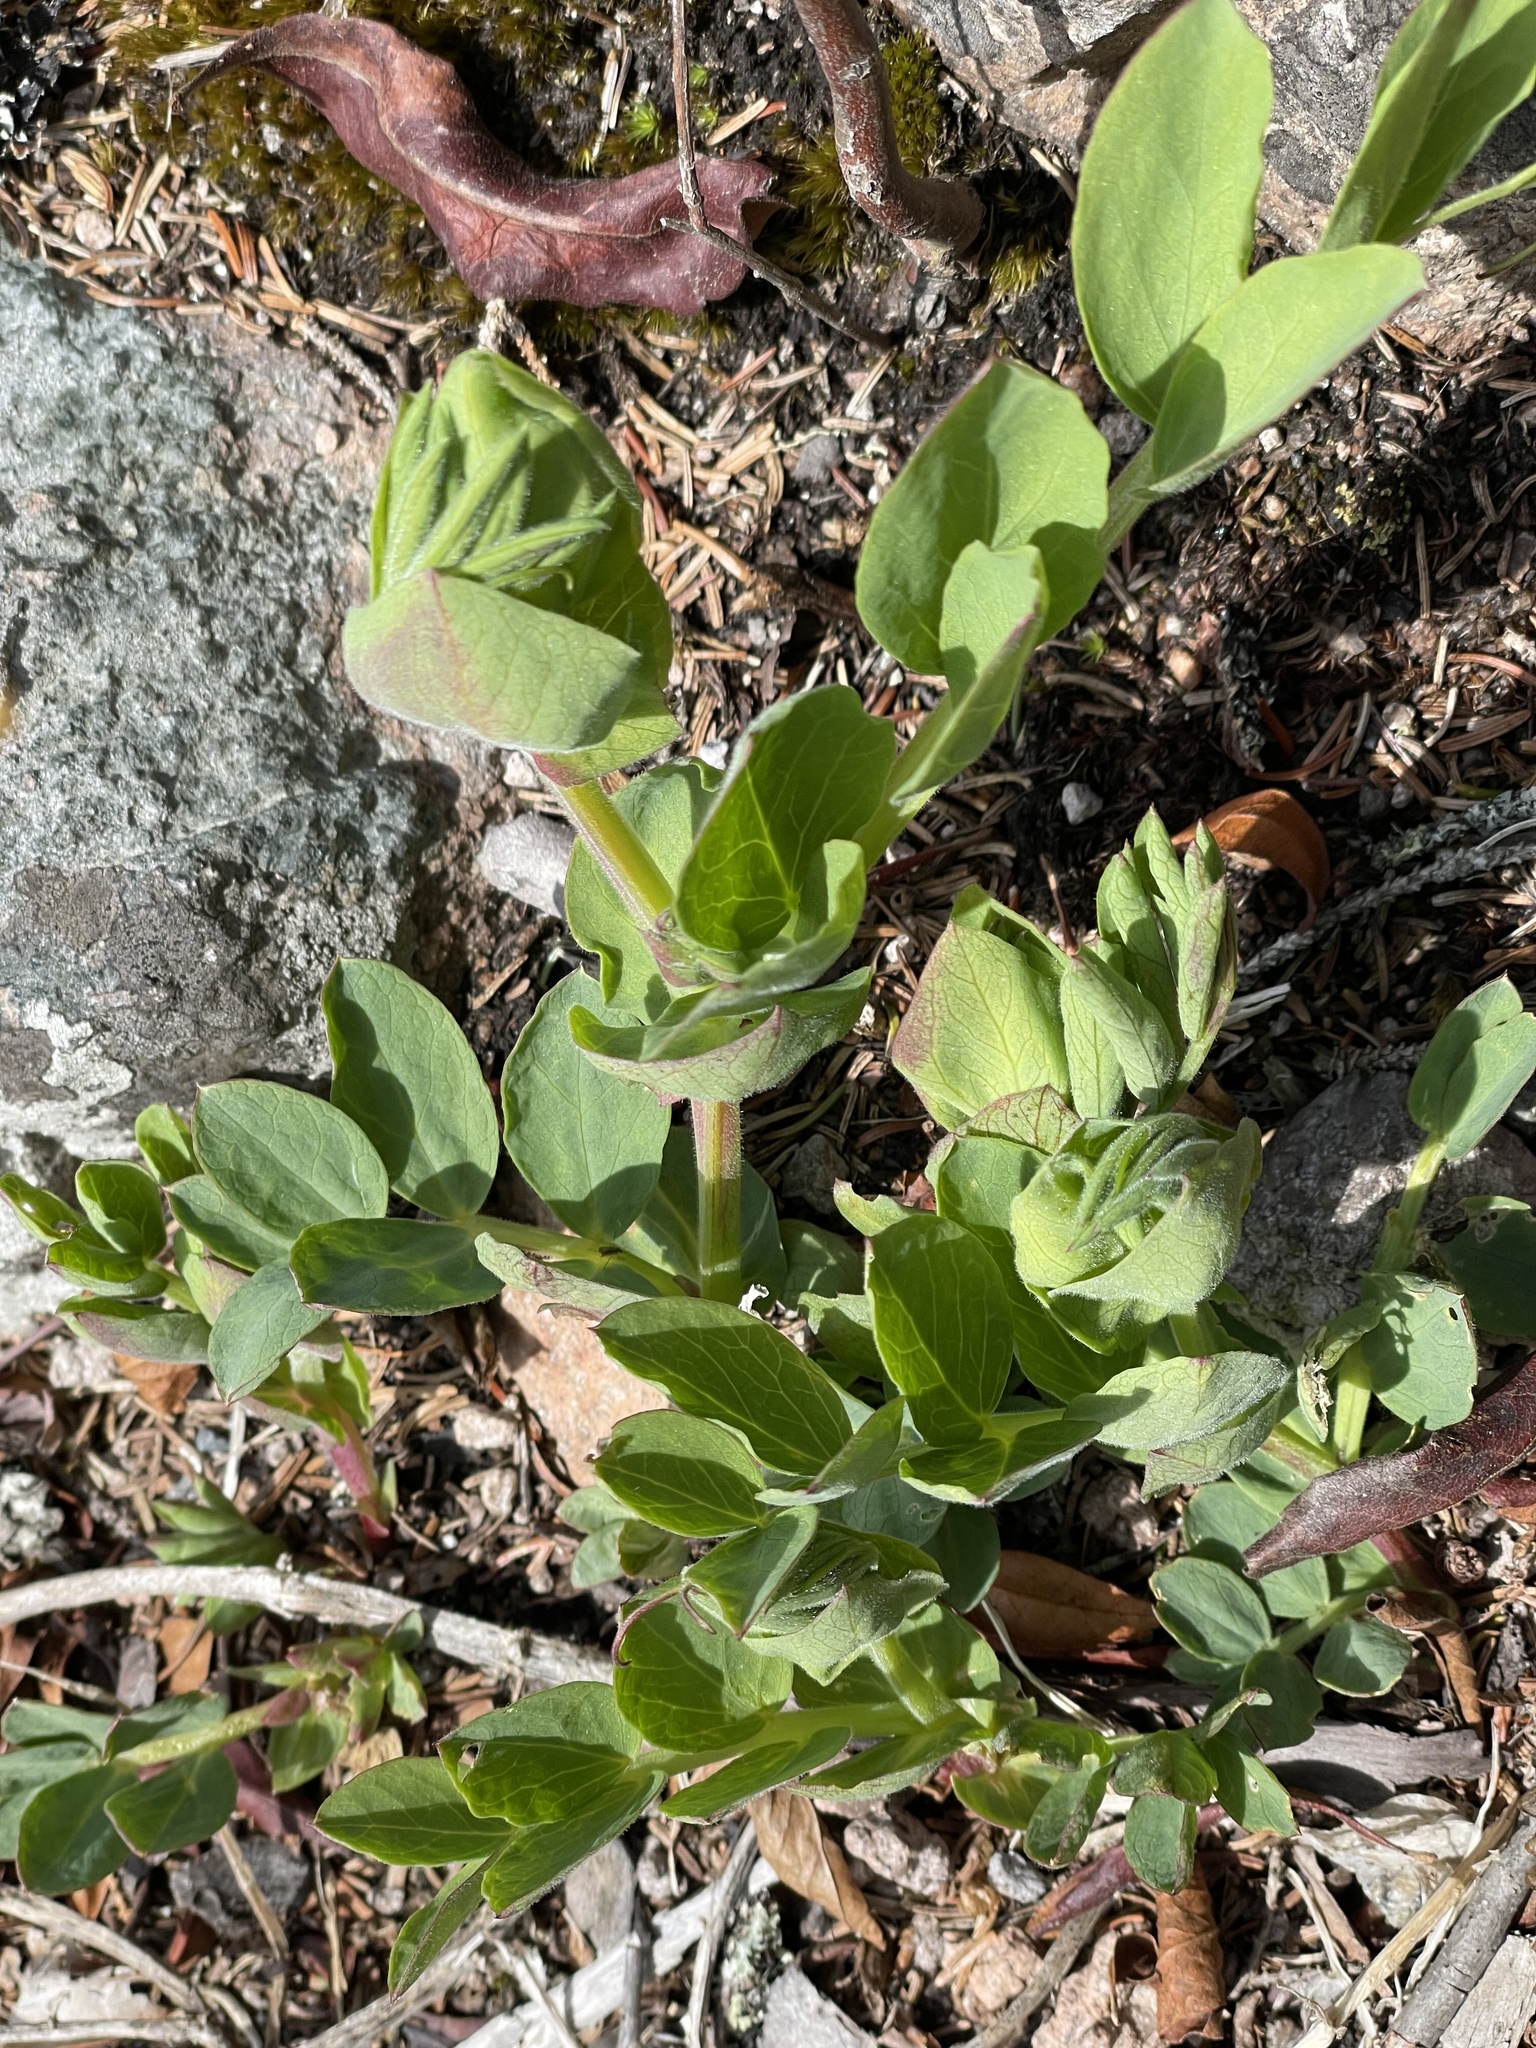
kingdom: Plantae
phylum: Tracheophyta
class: Magnoliopsida
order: Fabales
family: Fabaceae
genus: Lathyrus
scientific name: Lathyrus japonicus
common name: Sea pea
